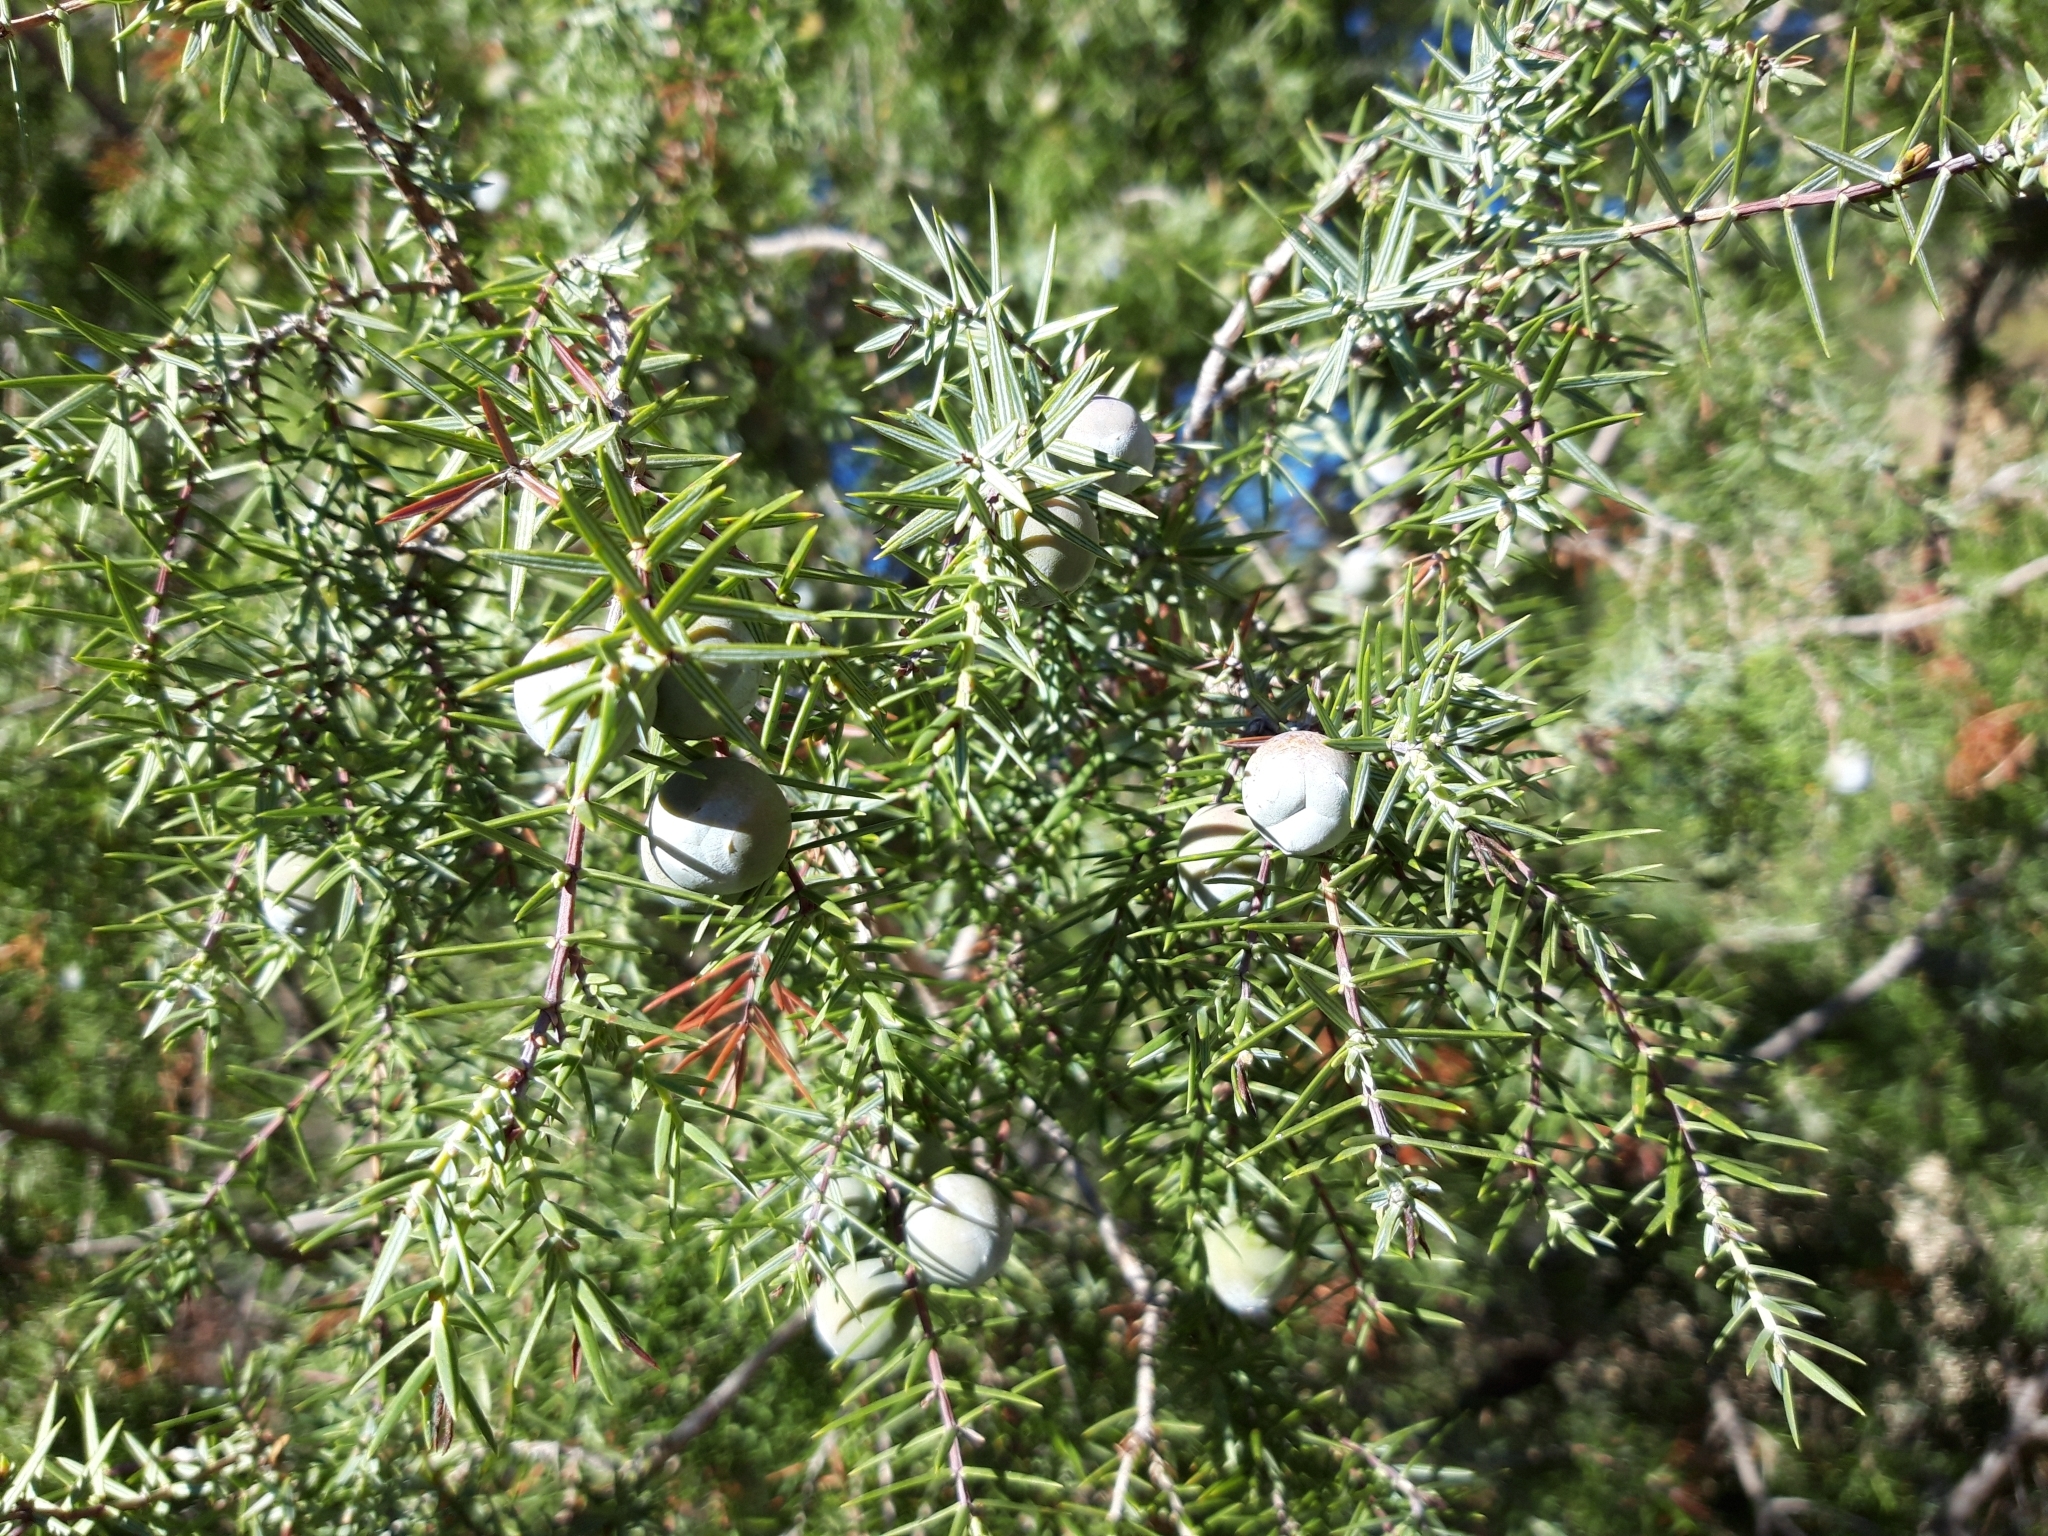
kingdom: Plantae
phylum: Tracheophyta
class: Pinopsida
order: Pinales
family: Cupressaceae
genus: Juniperus
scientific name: Juniperus oxycedrus
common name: Prickly juniper
